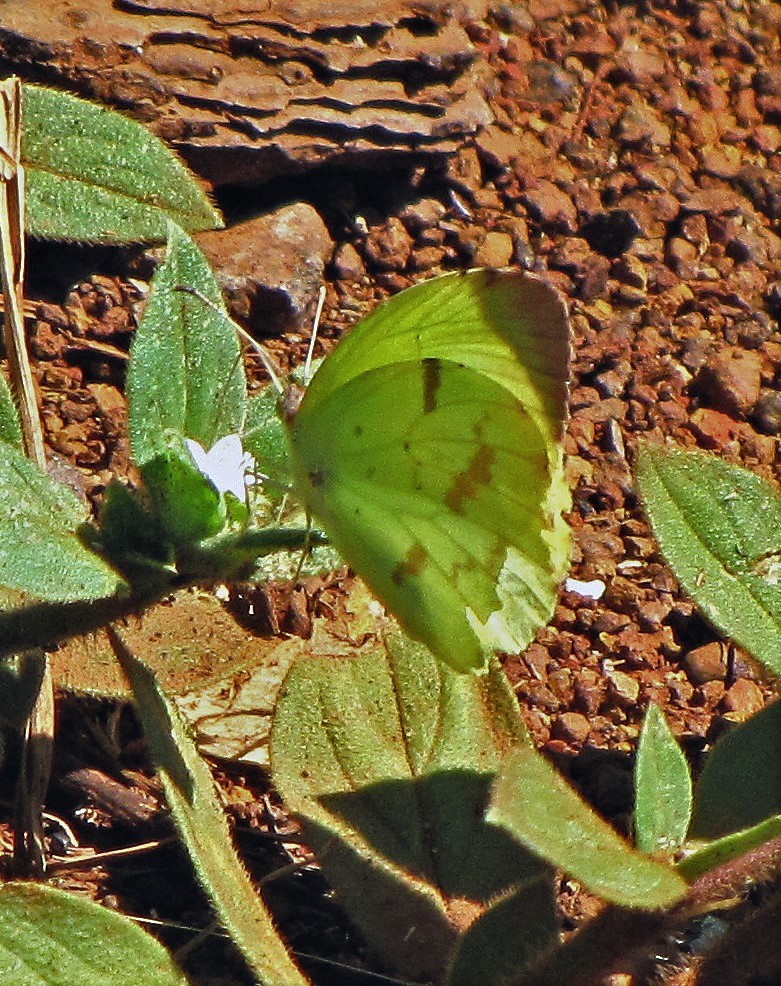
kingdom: Animalia
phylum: Arthropoda
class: Insecta
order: Lepidoptera
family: Pieridae
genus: Teriocolias
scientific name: Teriocolias
